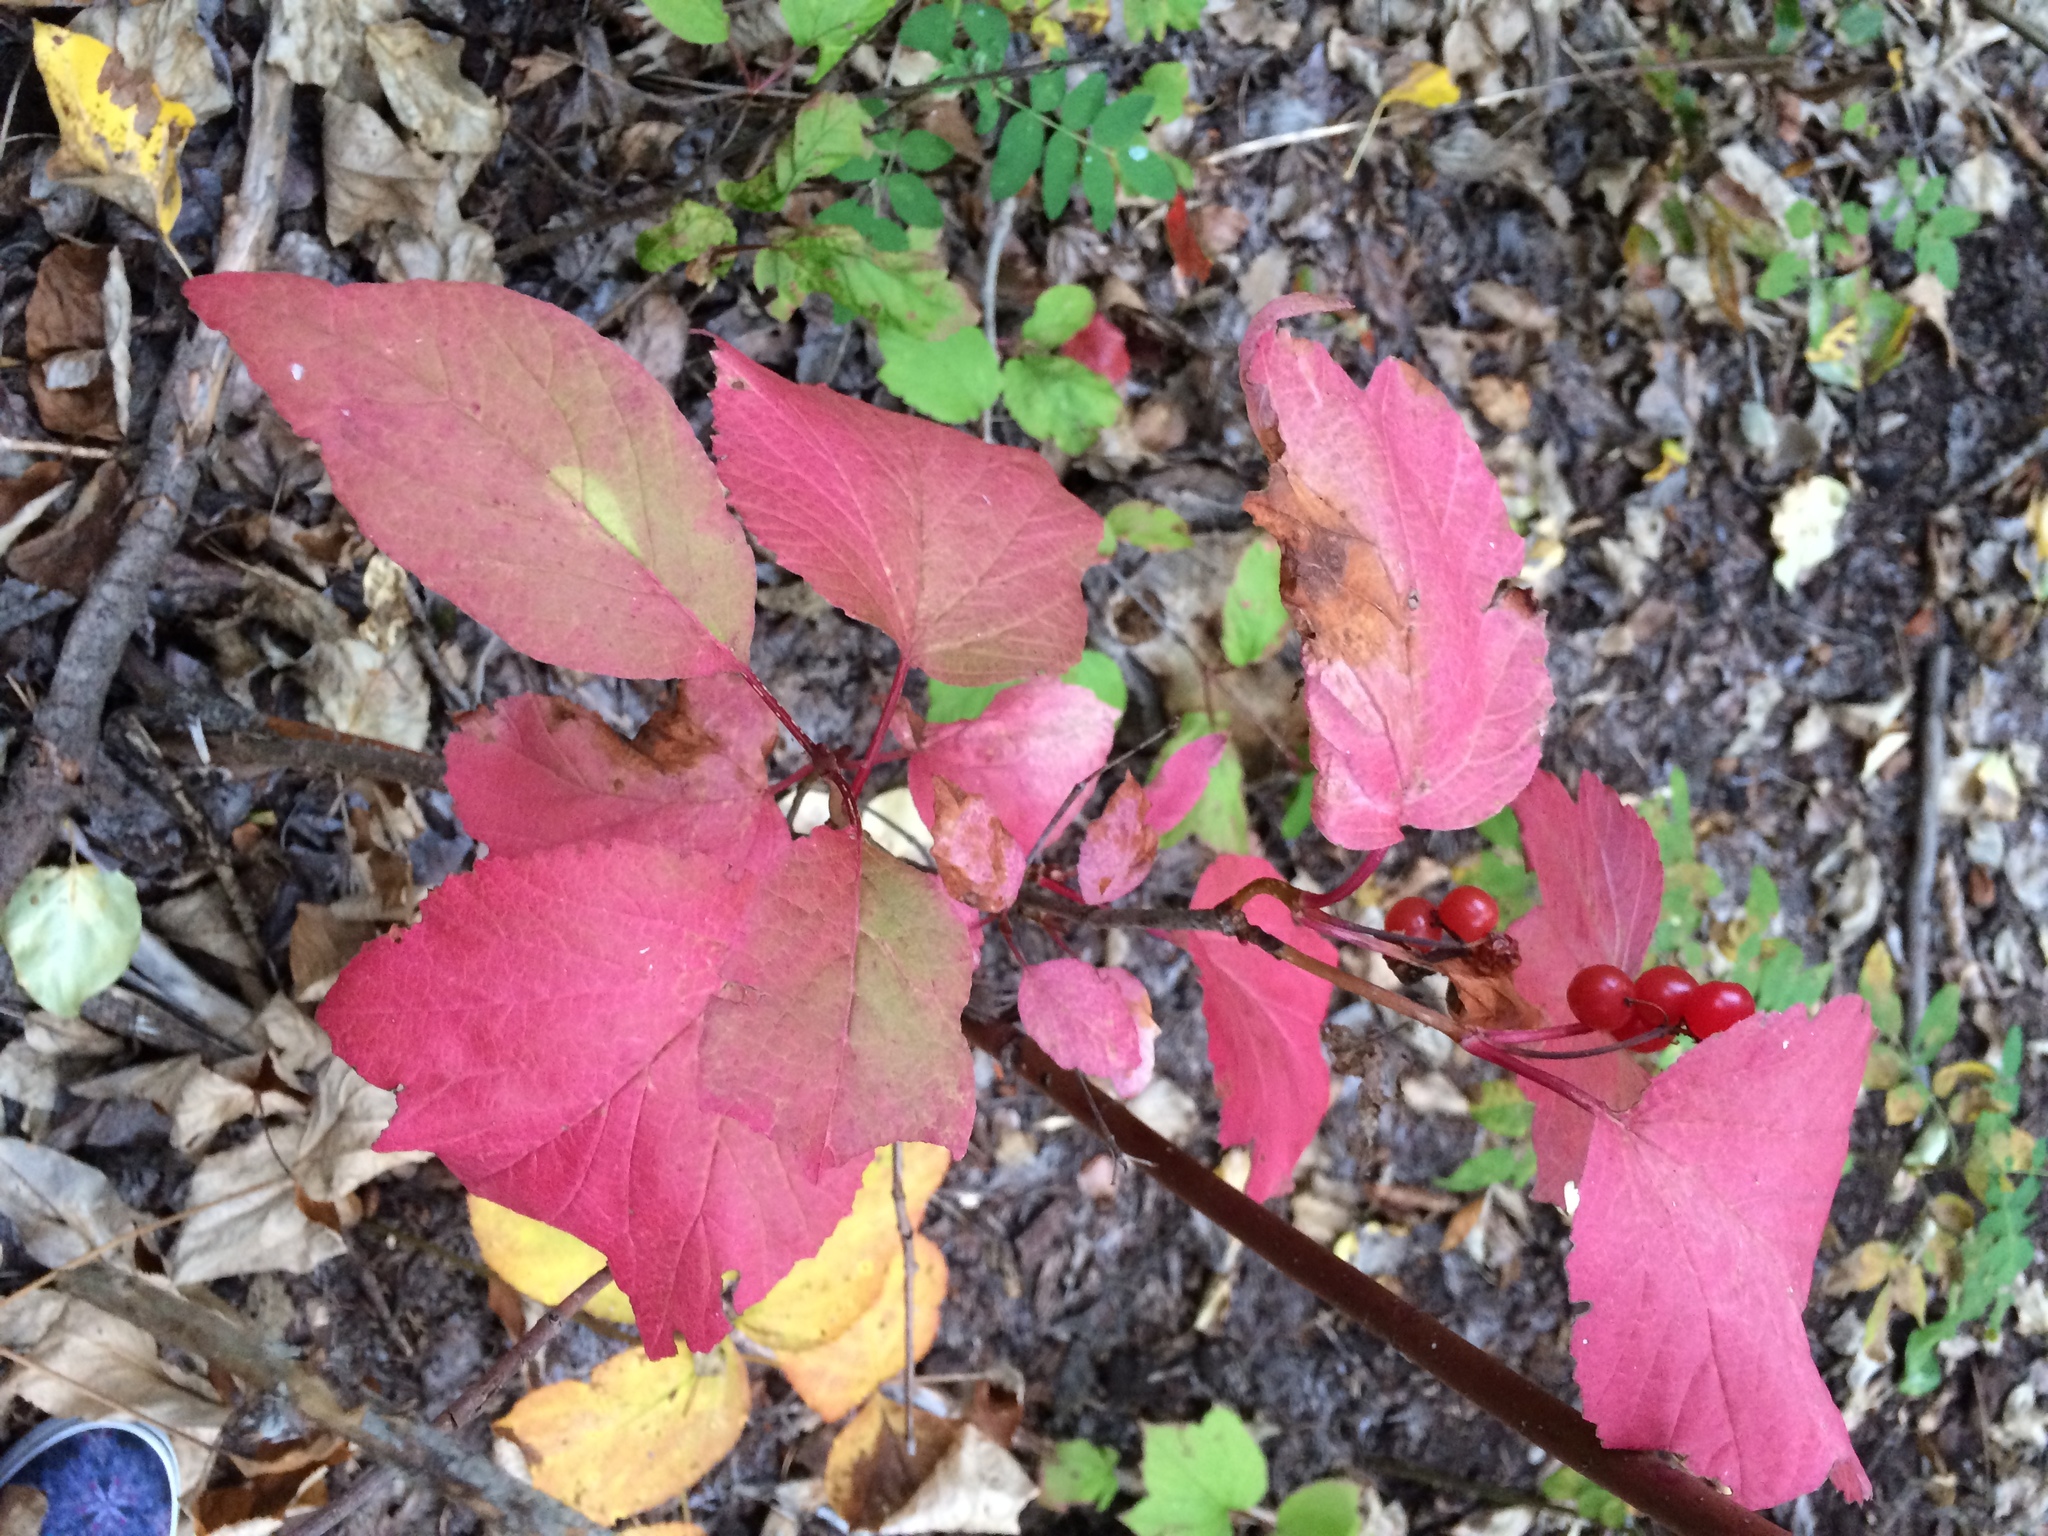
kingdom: Plantae
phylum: Tracheophyta
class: Magnoliopsida
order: Dipsacales
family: Viburnaceae
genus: Viburnum
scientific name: Viburnum edule
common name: Mooseberry
